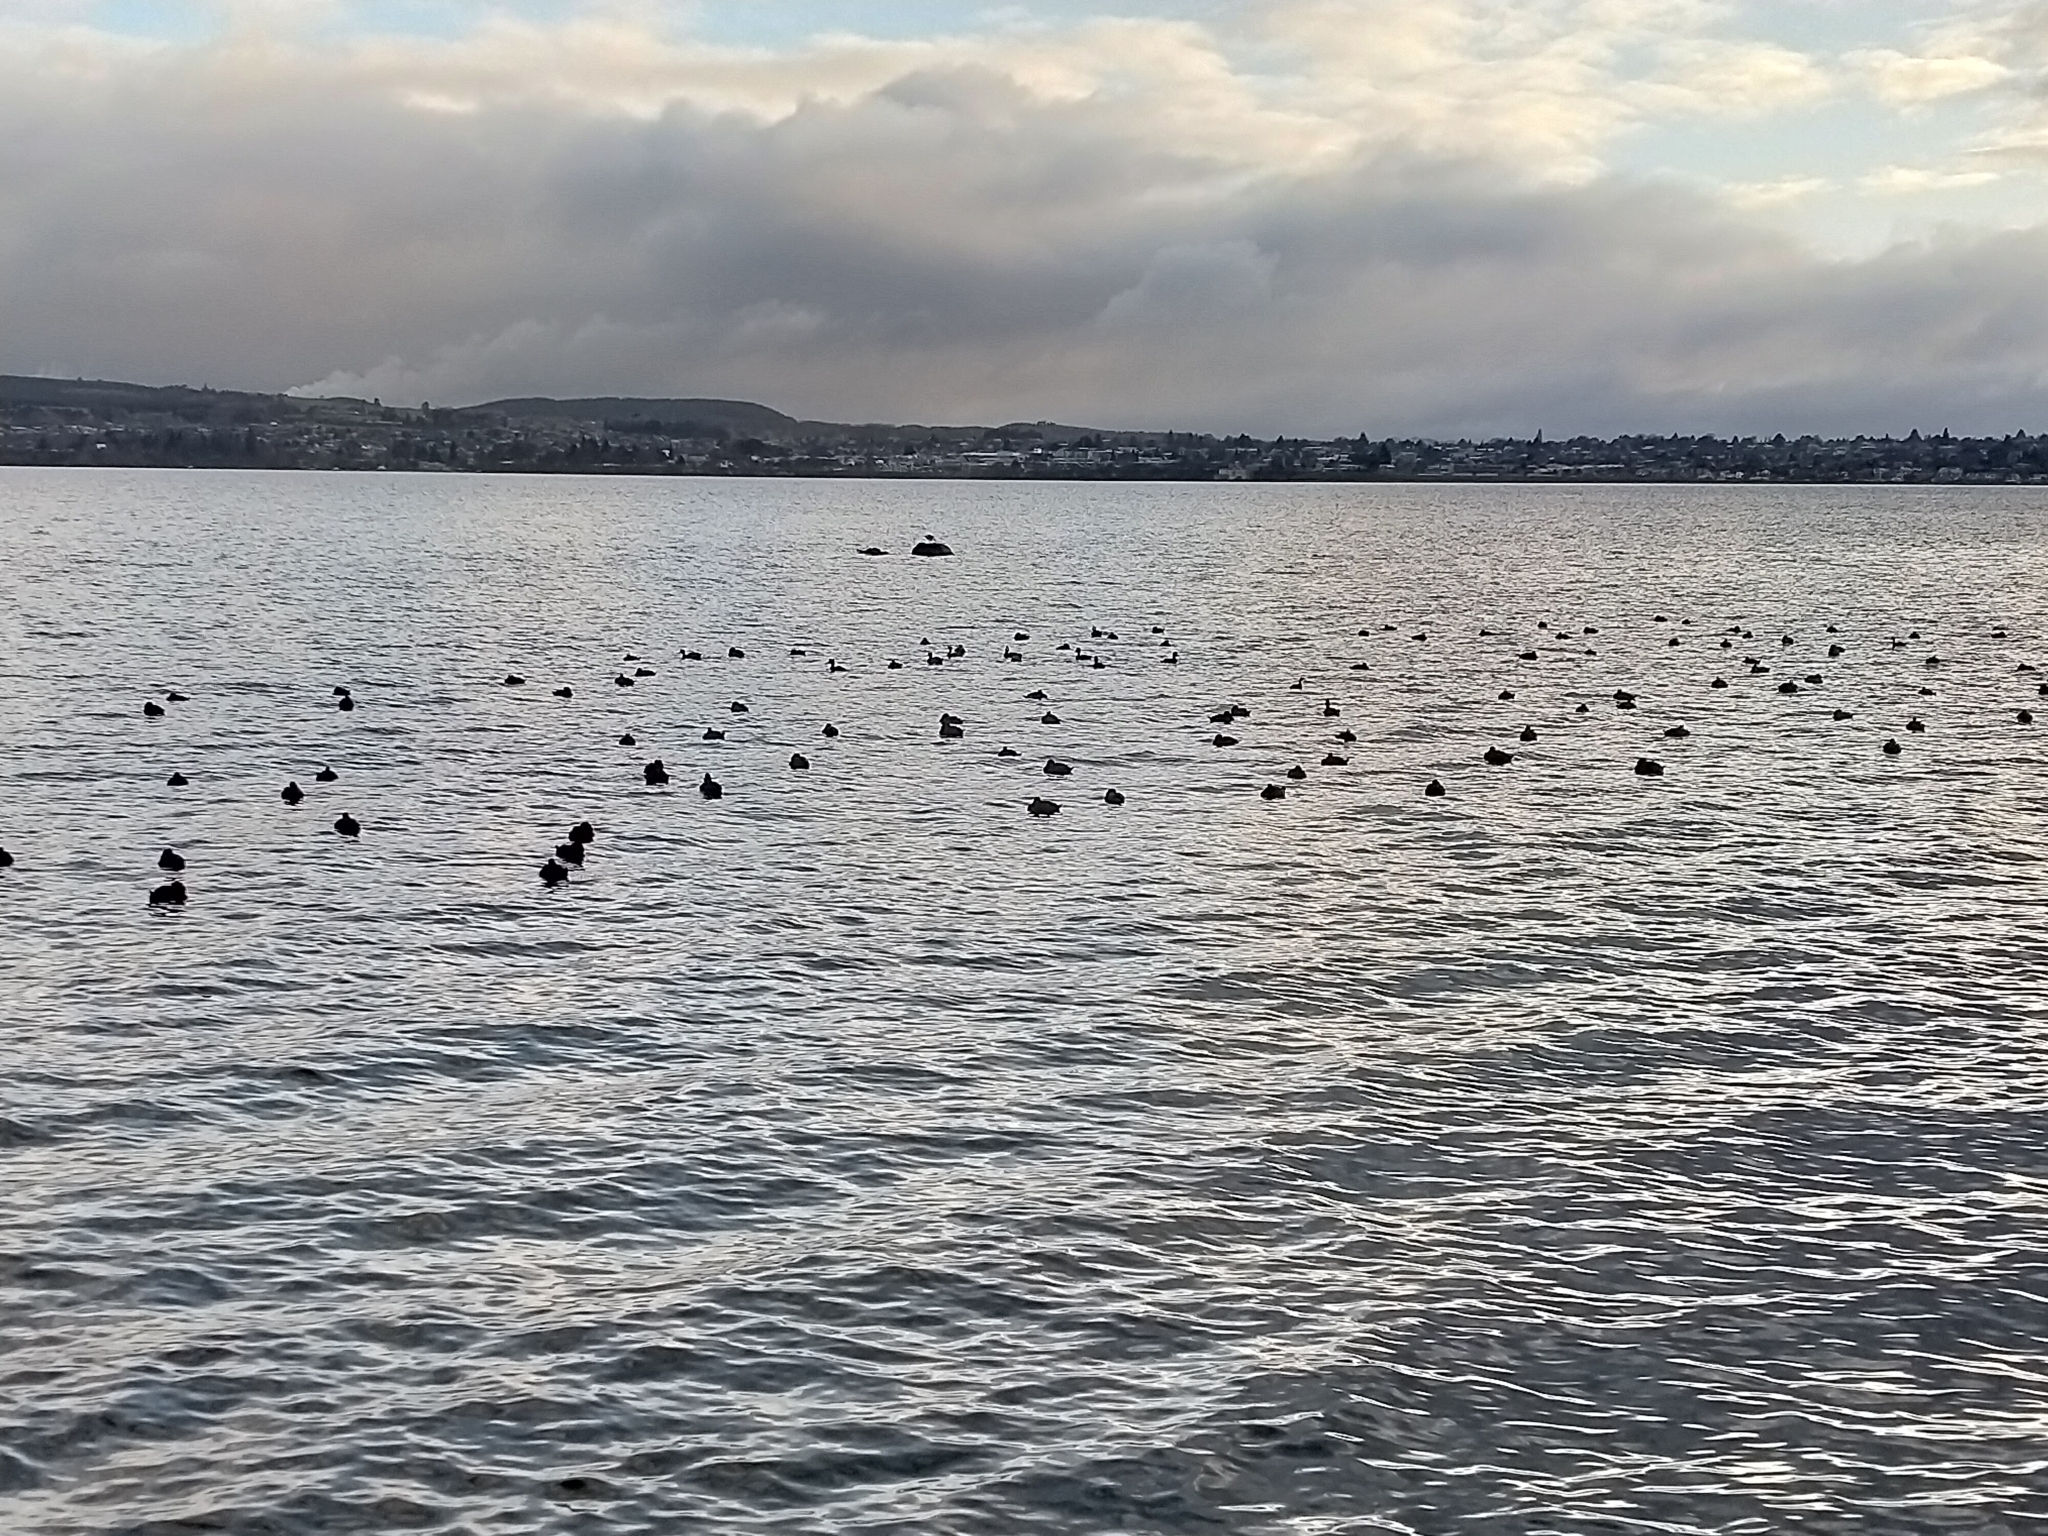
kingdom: Animalia
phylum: Chordata
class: Aves
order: Anseriformes
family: Anatidae
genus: Aythya
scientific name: Aythya novaeseelandiae
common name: New zealand scaup
